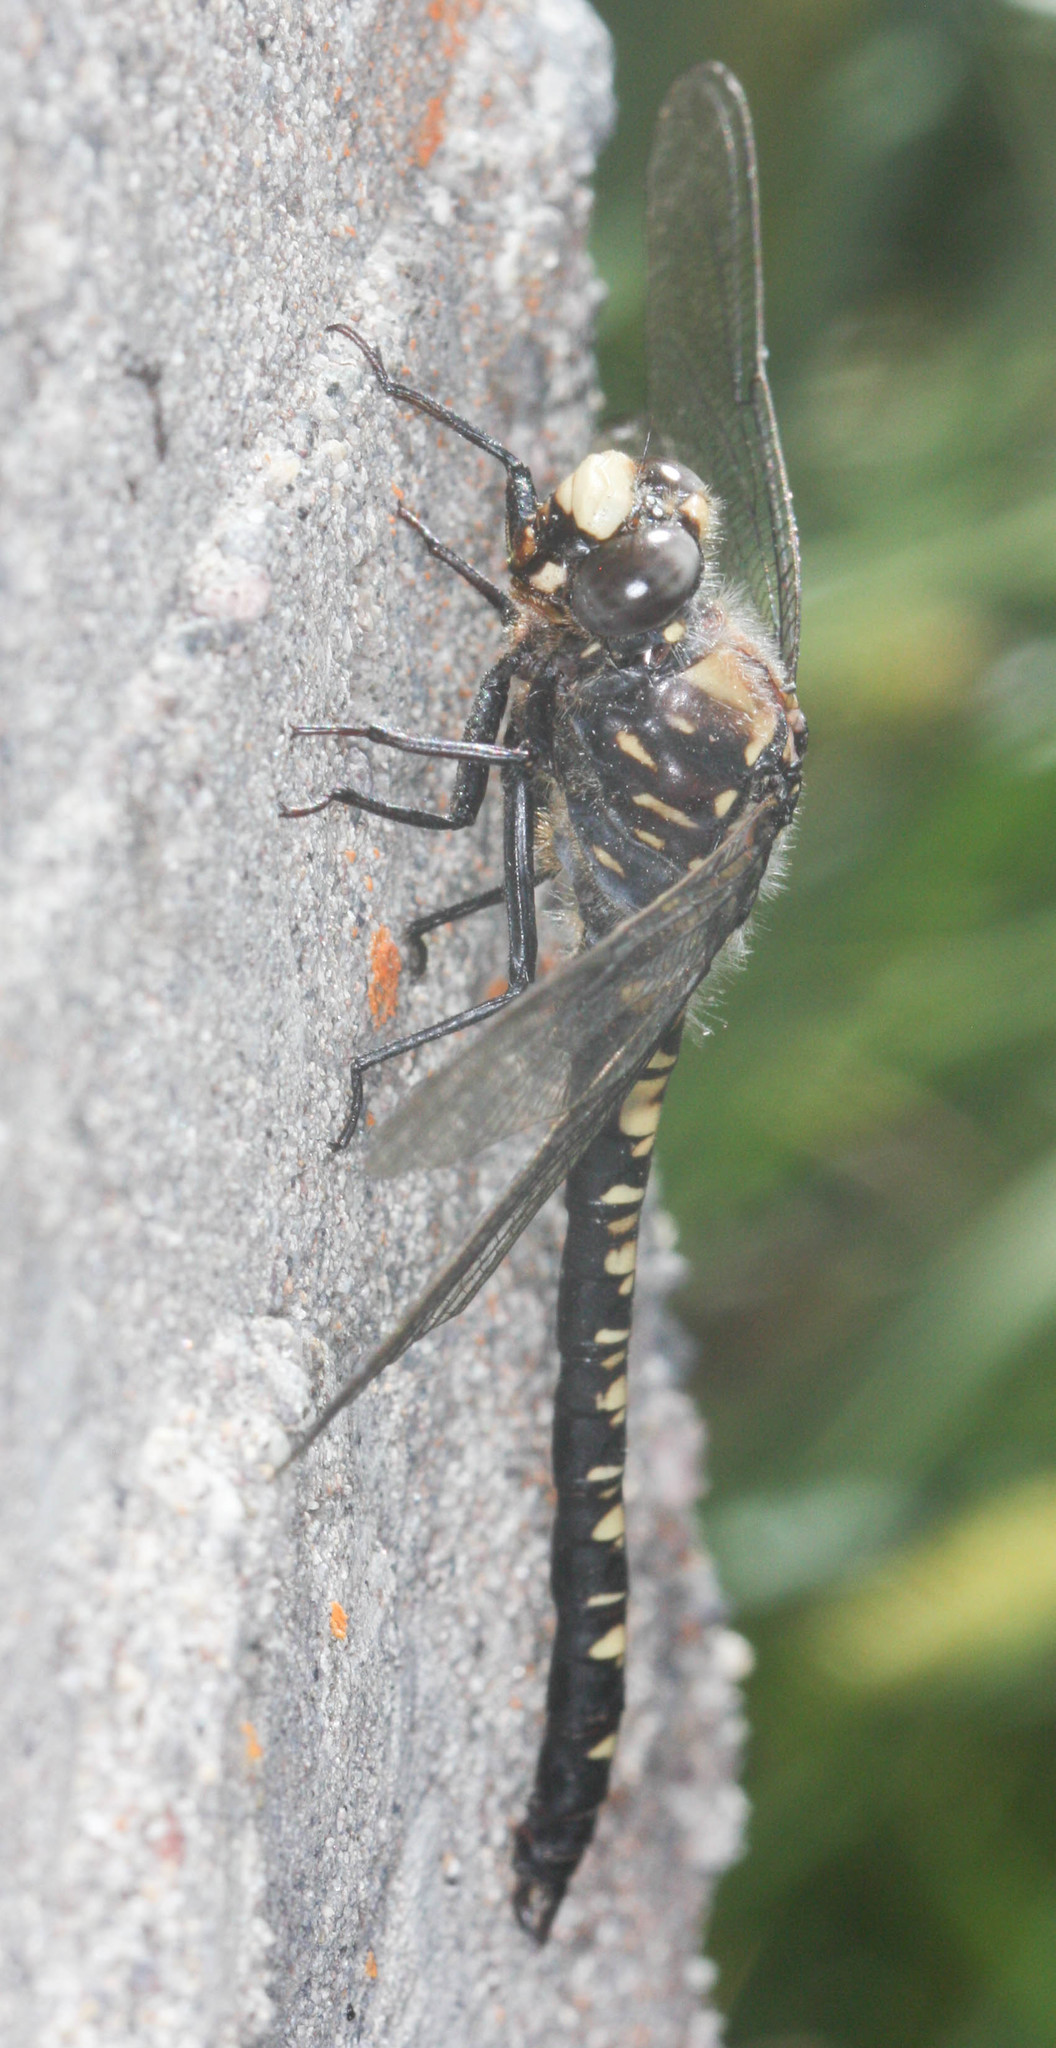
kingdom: Animalia
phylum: Arthropoda
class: Insecta
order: Odonata
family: Petaluridae
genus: Tanypteryx
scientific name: Tanypteryx hageni
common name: Black petaltail
